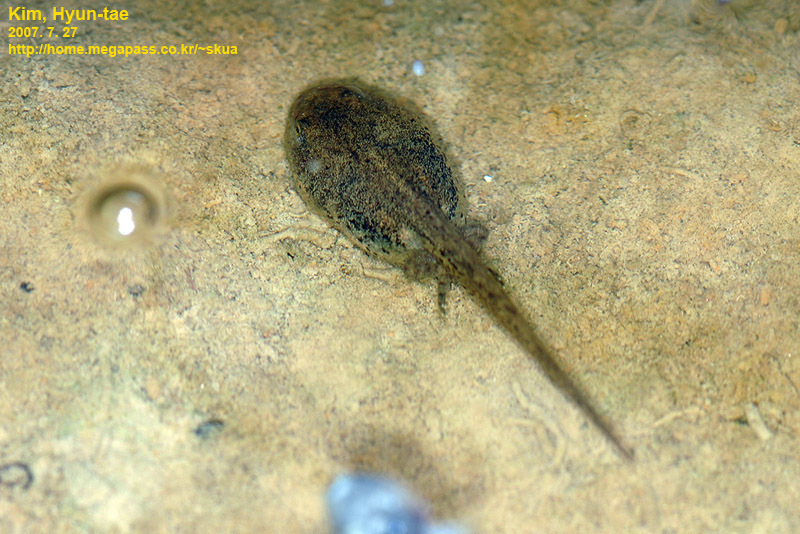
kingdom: Animalia
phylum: Chordata
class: Amphibia
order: Anura
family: Bombinatoridae
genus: Bombina
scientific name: Bombina orientalis
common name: Oriental firebelly toad
